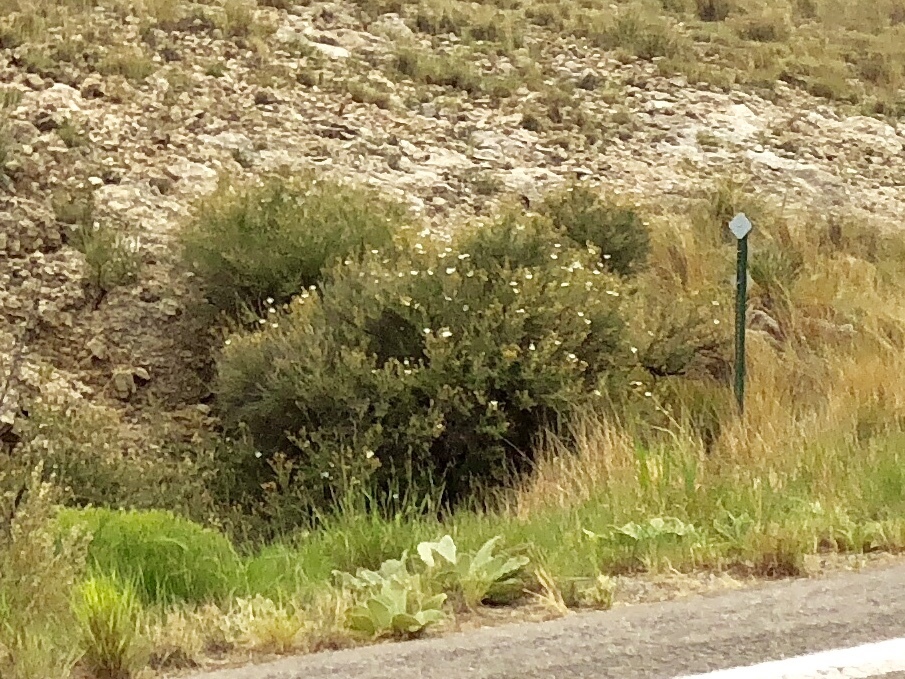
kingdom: Plantae
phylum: Tracheophyta
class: Magnoliopsida
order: Rosales
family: Rosaceae
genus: Fallugia
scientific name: Fallugia paradoxa
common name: Apache-plume
